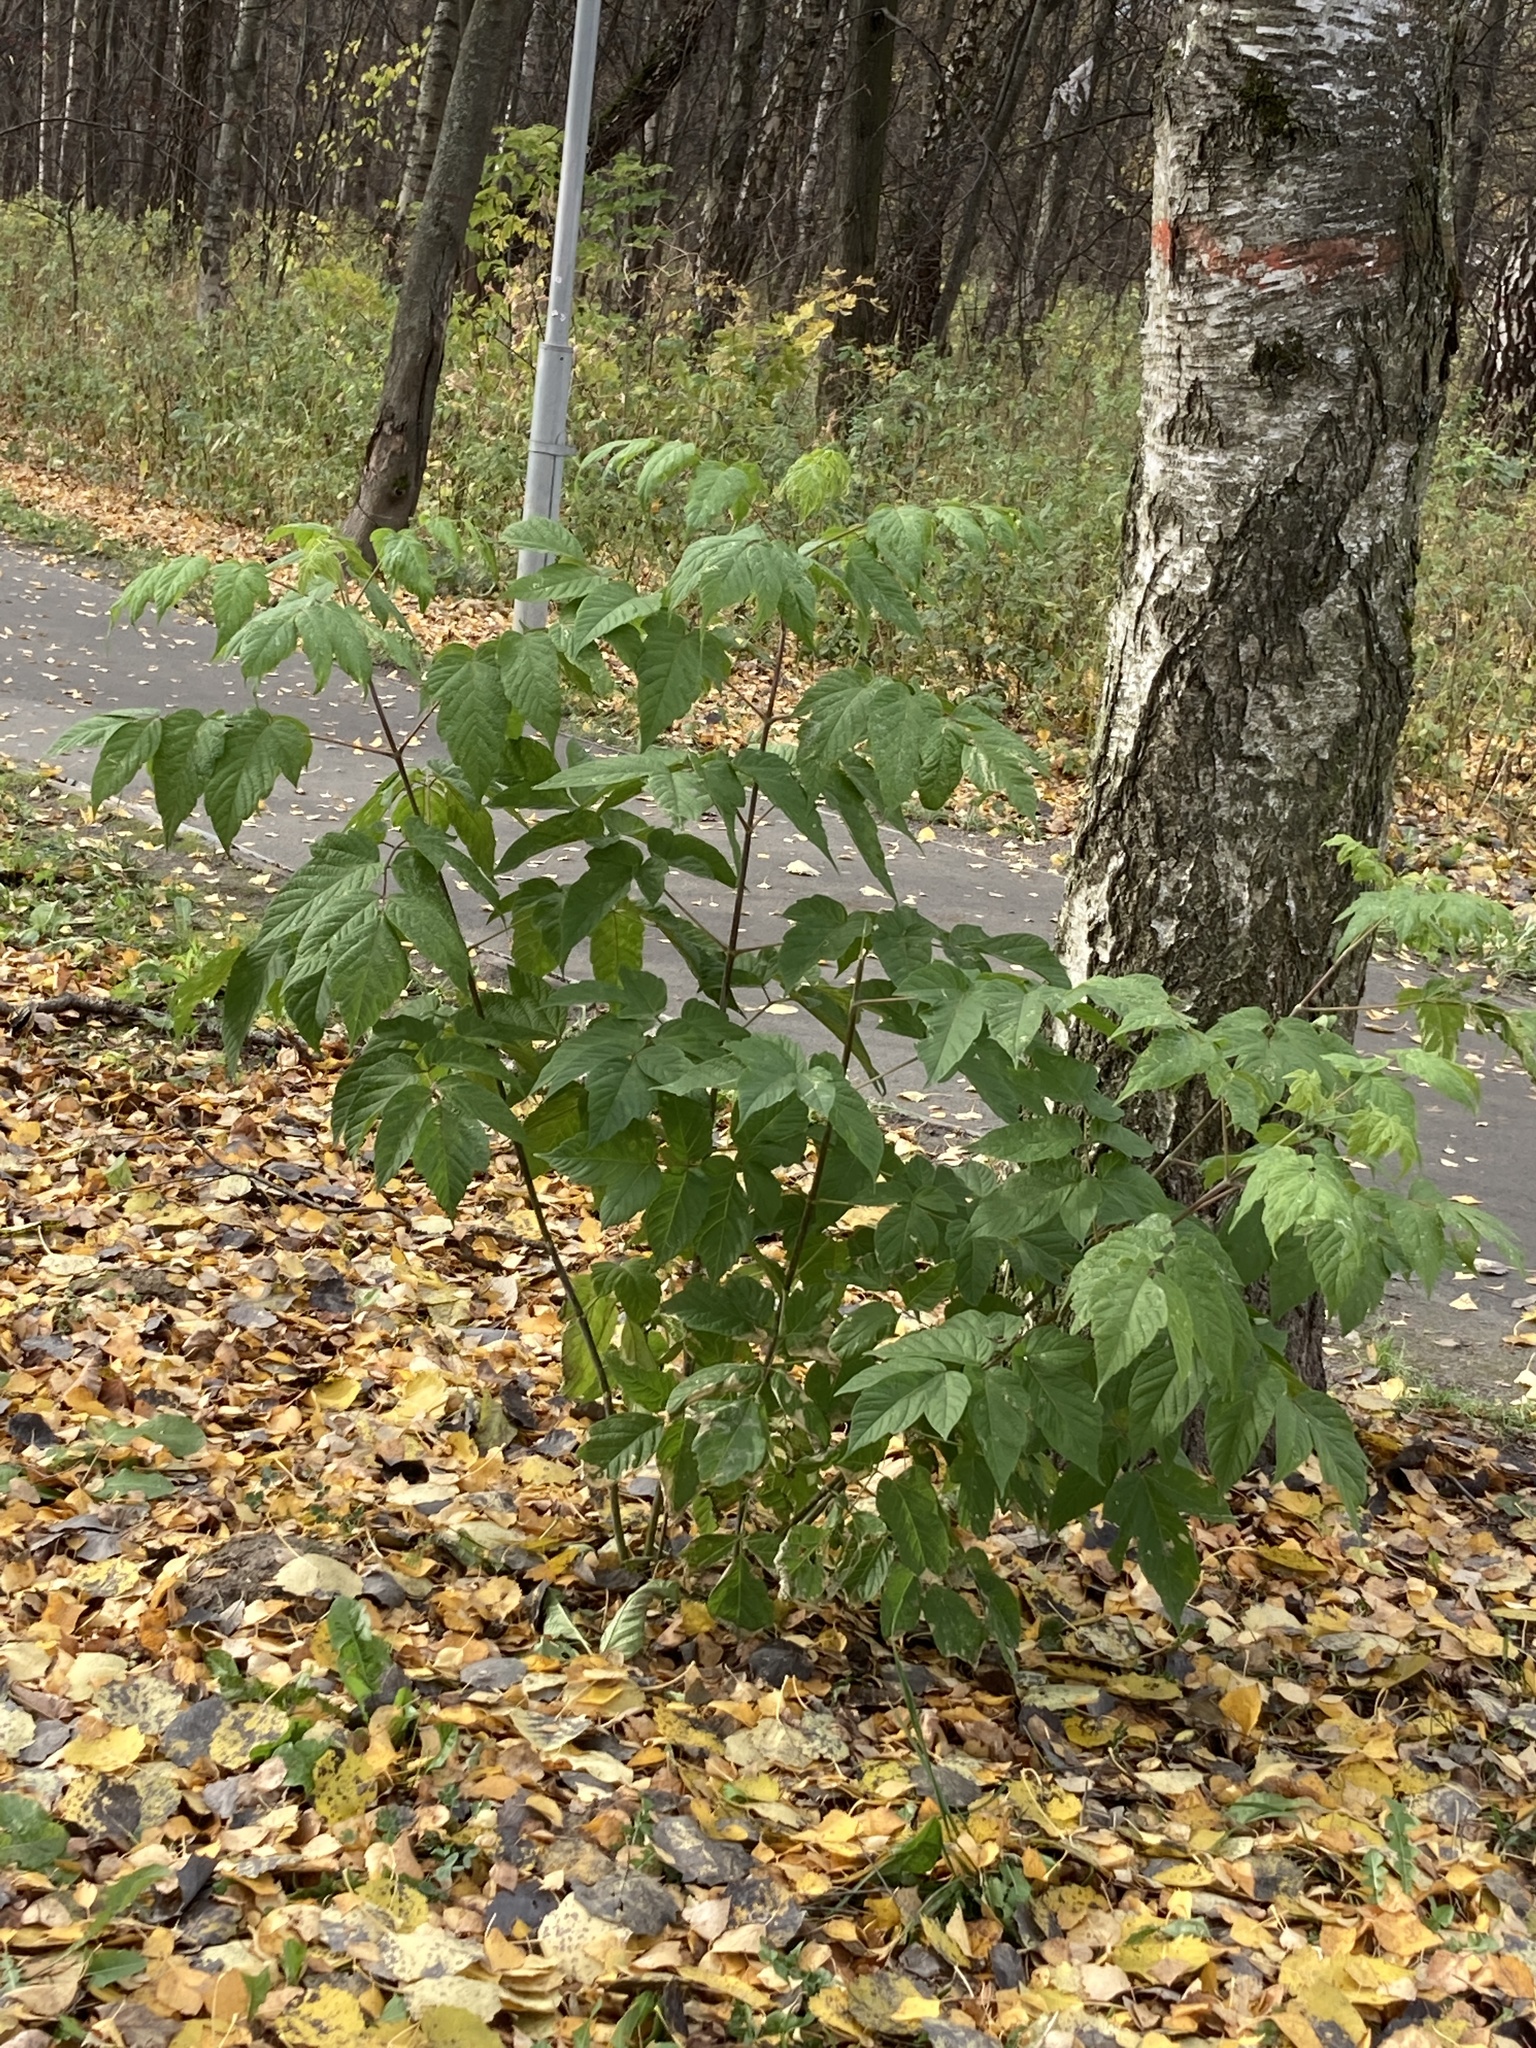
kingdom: Plantae
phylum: Tracheophyta
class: Magnoliopsida
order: Sapindales
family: Sapindaceae
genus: Acer
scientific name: Acer negundo
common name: Ashleaf maple
